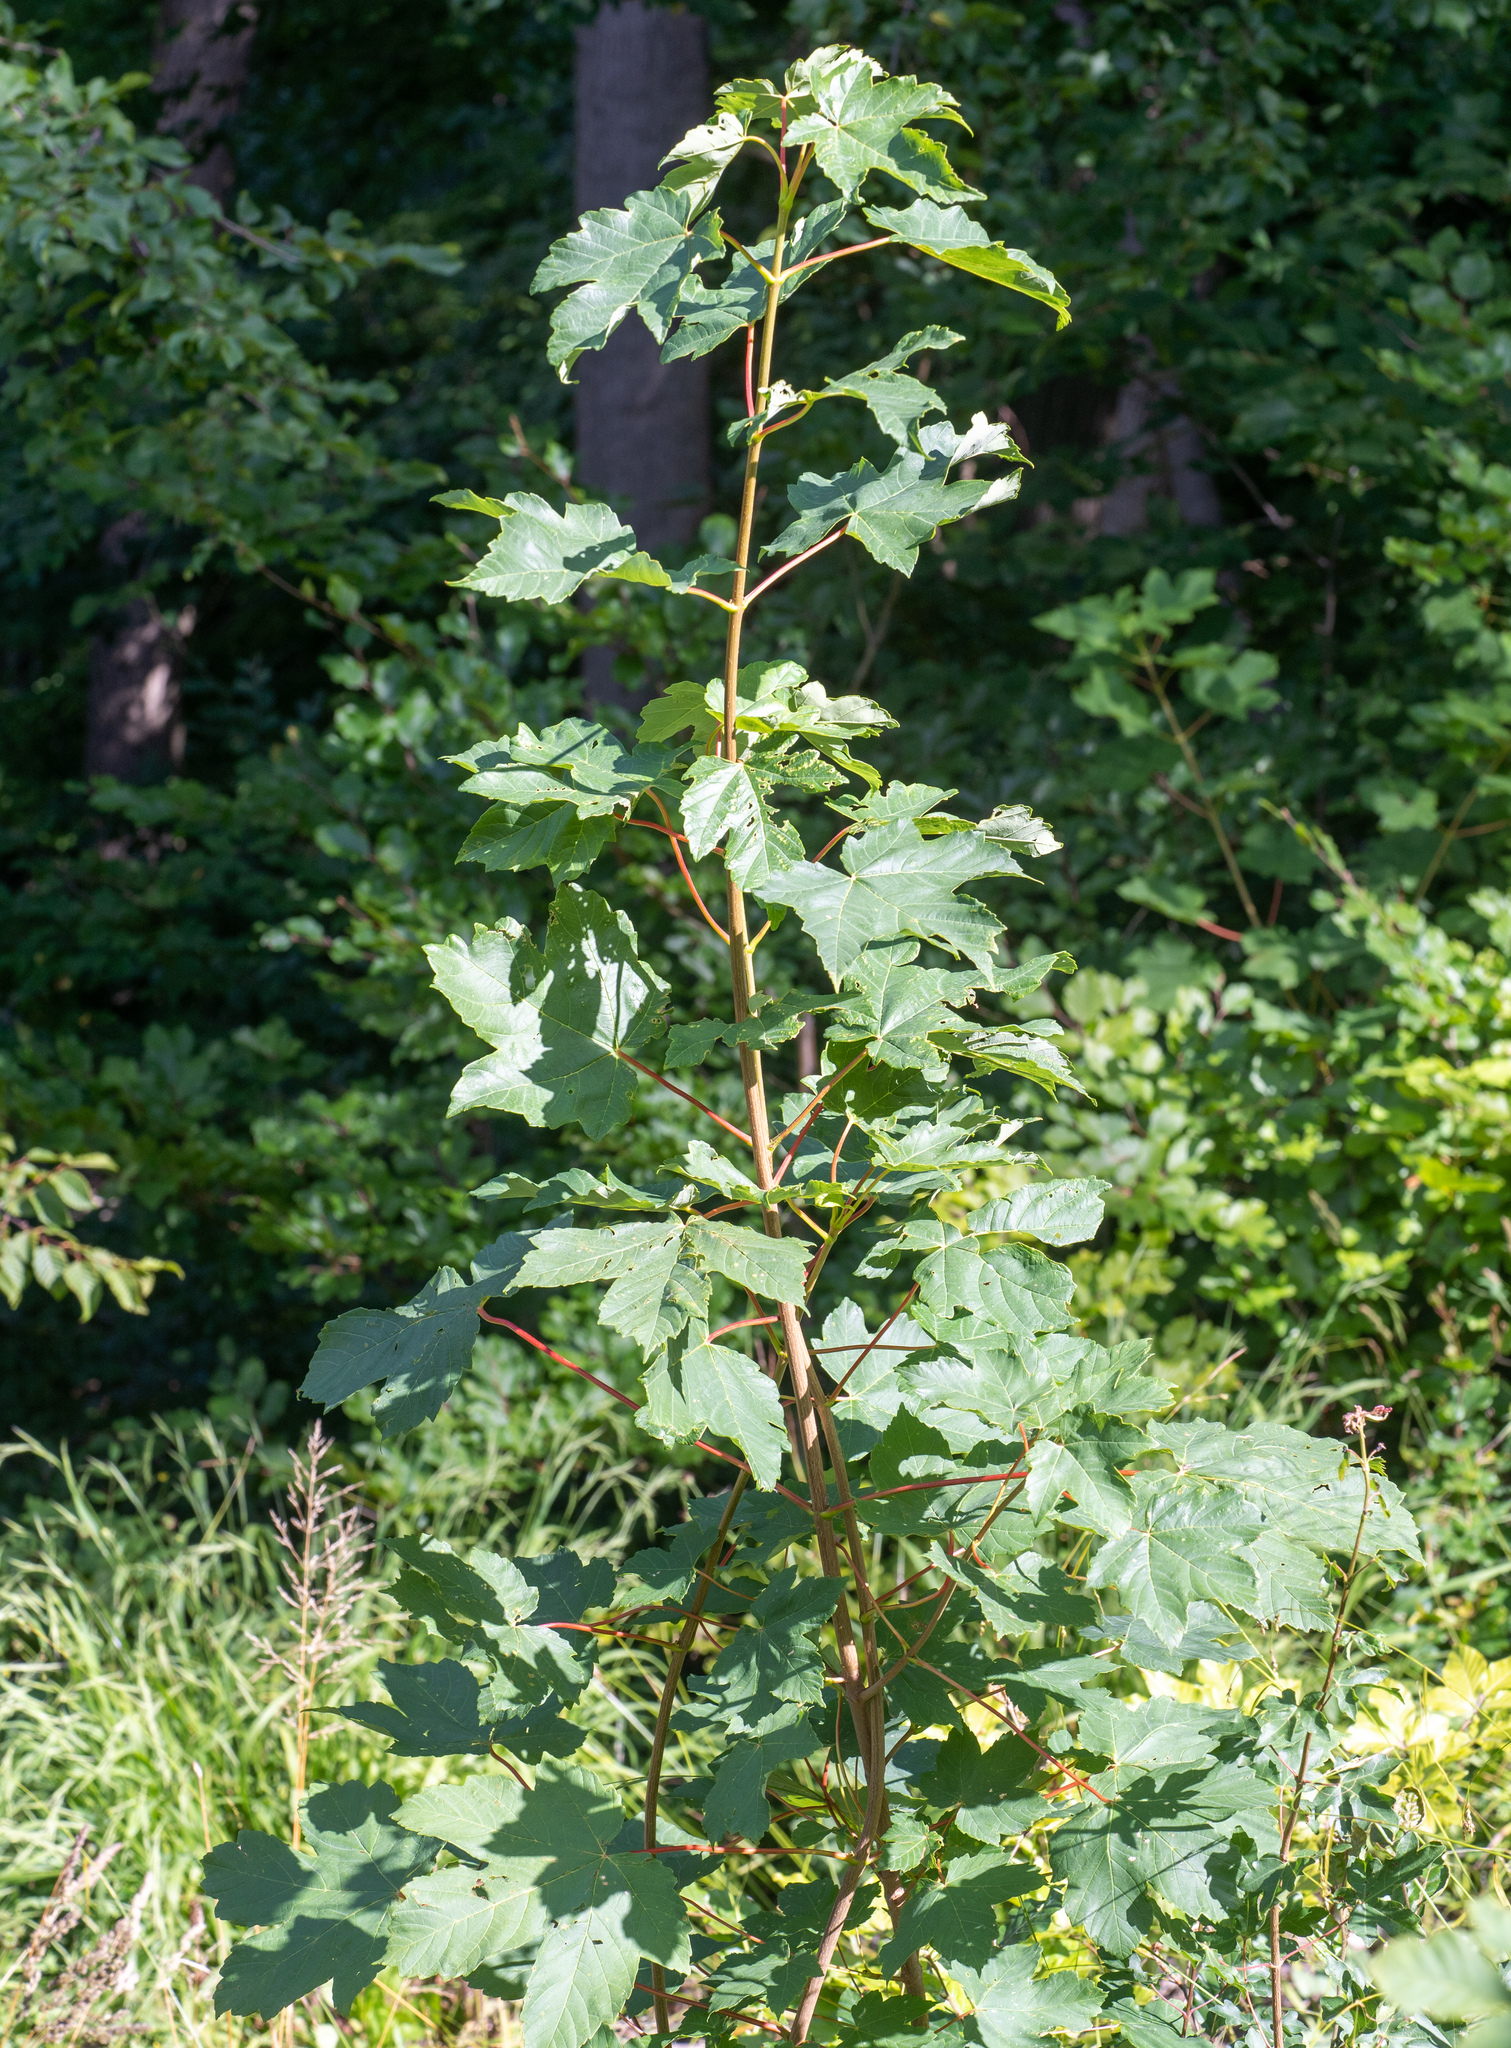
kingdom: Plantae
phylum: Tracheophyta
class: Magnoliopsida
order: Sapindales
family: Sapindaceae
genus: Acer
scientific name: Acer pseudoplatanus
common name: Sycamore
